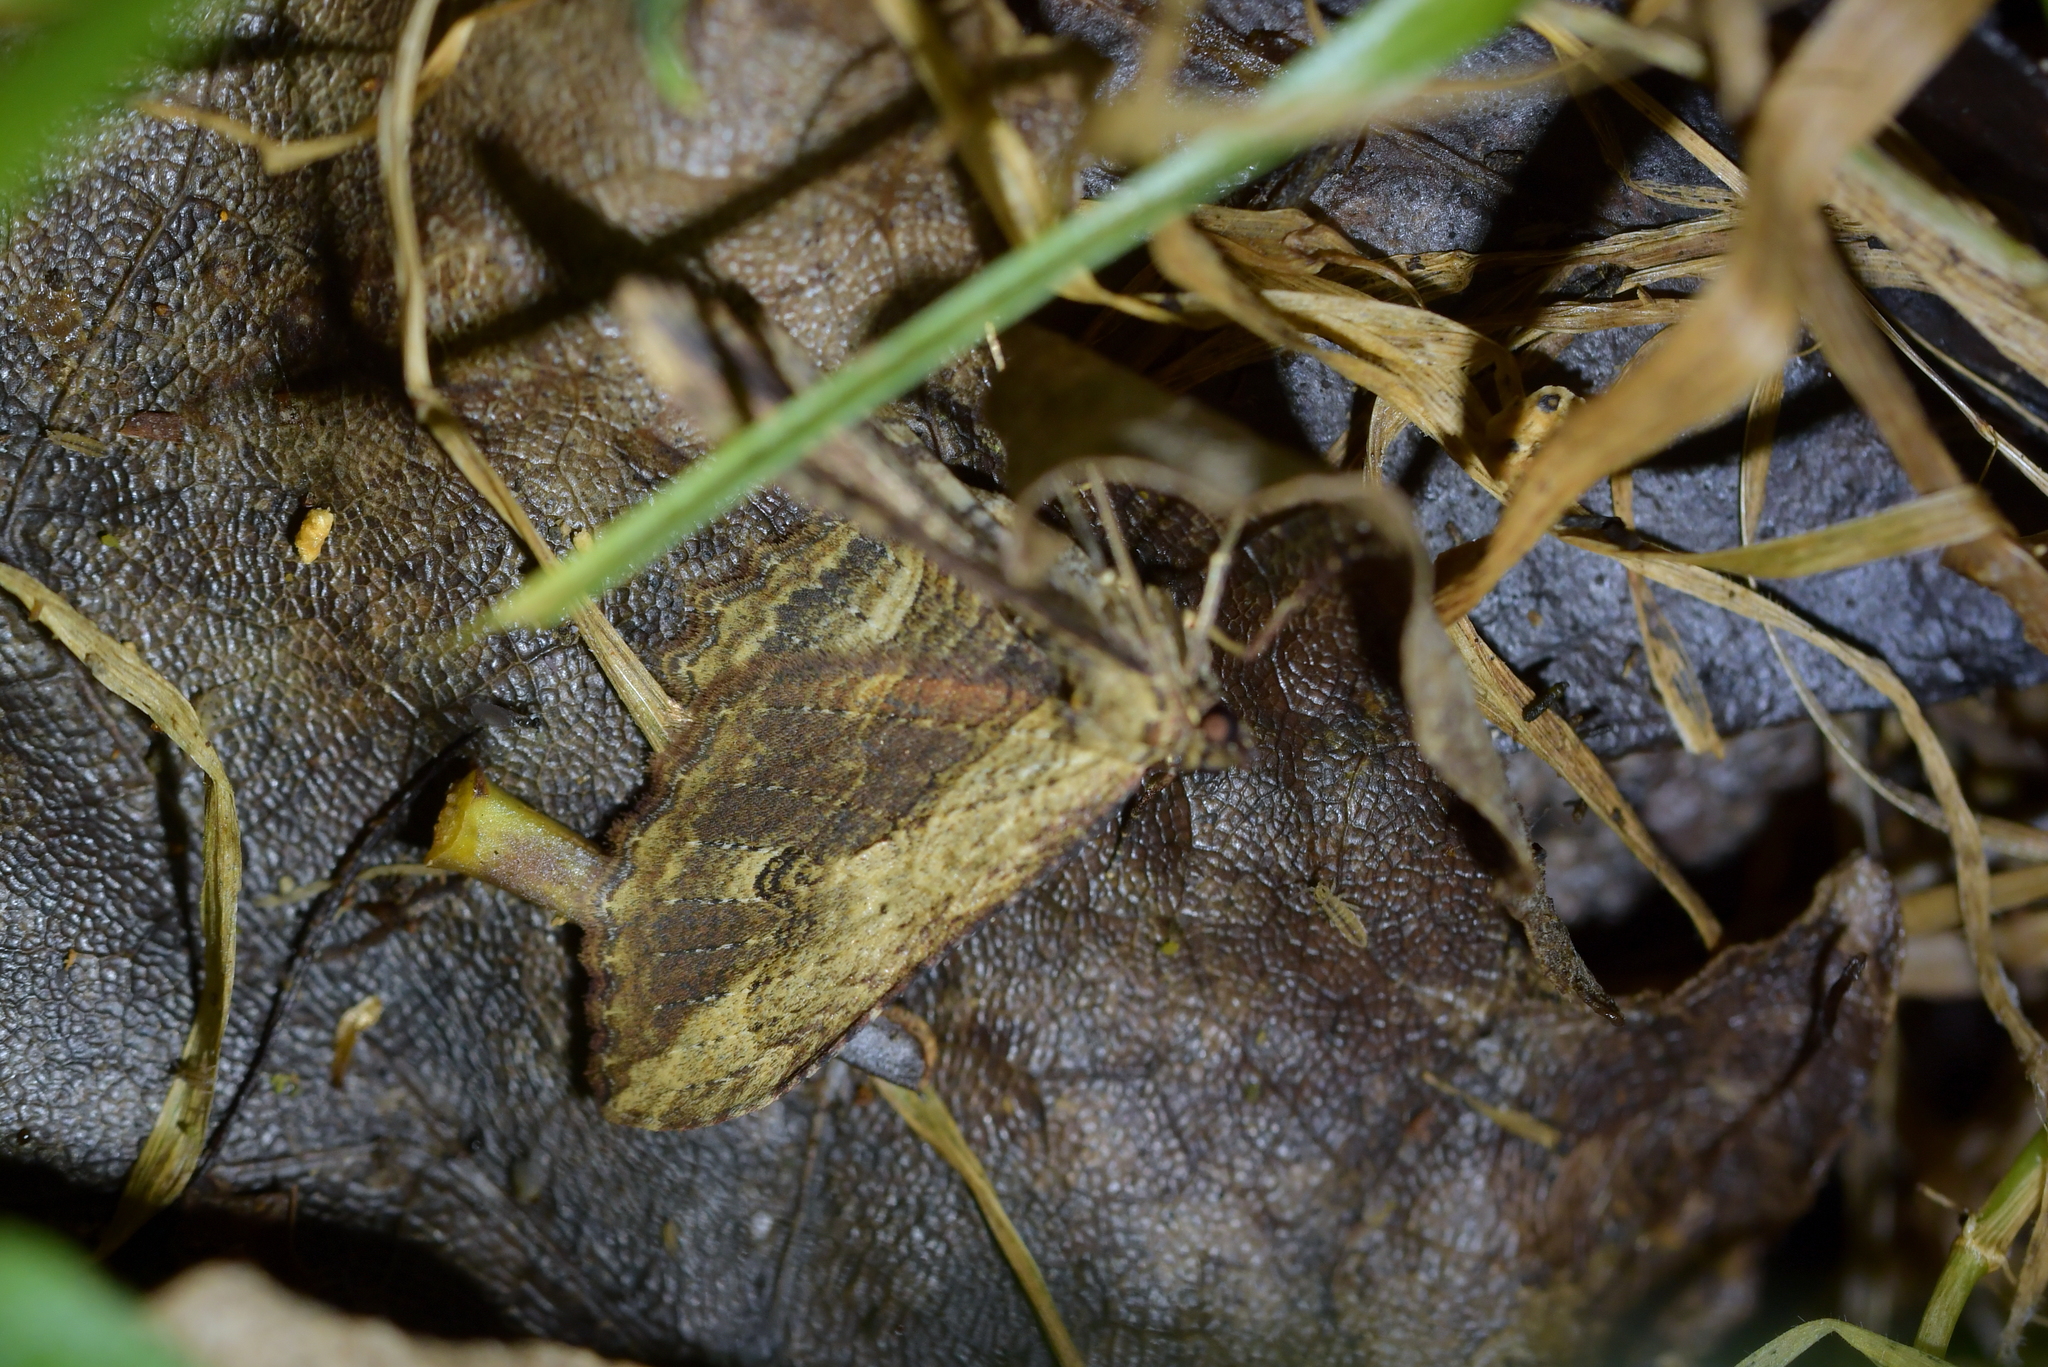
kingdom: Animalia
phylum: Arthropoda
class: Insecta
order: Lepidoptera
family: Geometridae
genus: Austrocidaria
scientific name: Austrocidaria bipartita
